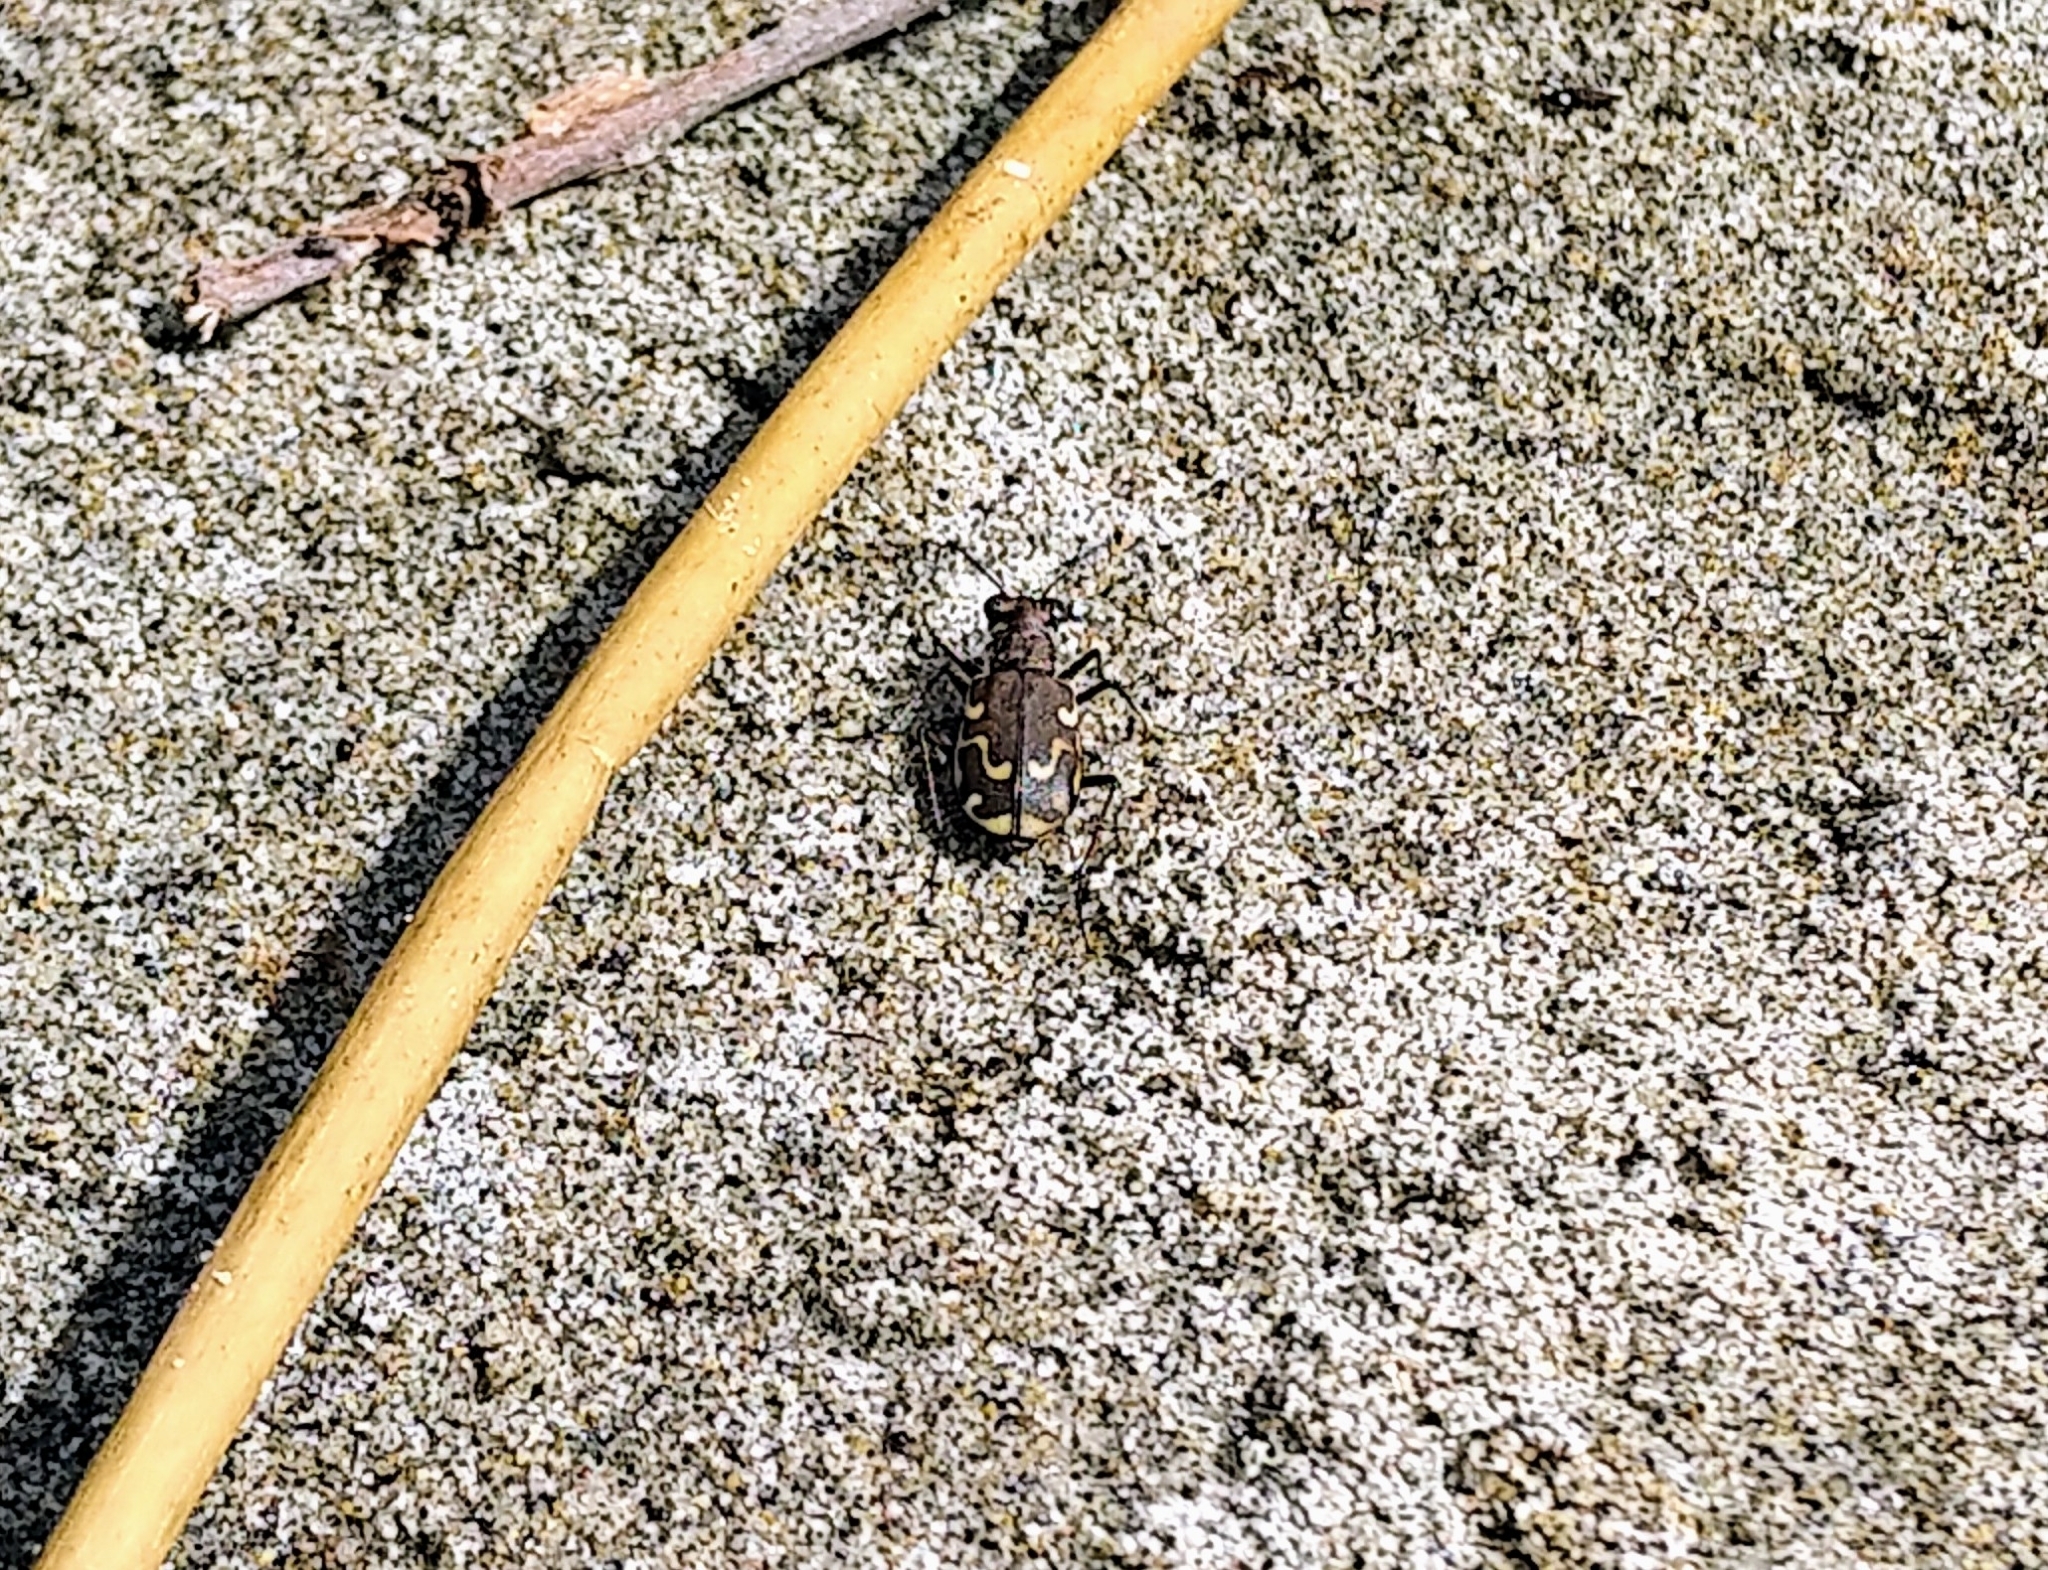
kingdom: Animalia
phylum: Arthropoda
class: Insecta
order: Coleoptera
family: Carabidae
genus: Cicindela
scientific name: Cicindela repanda
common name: Bronzed tiger beetle
